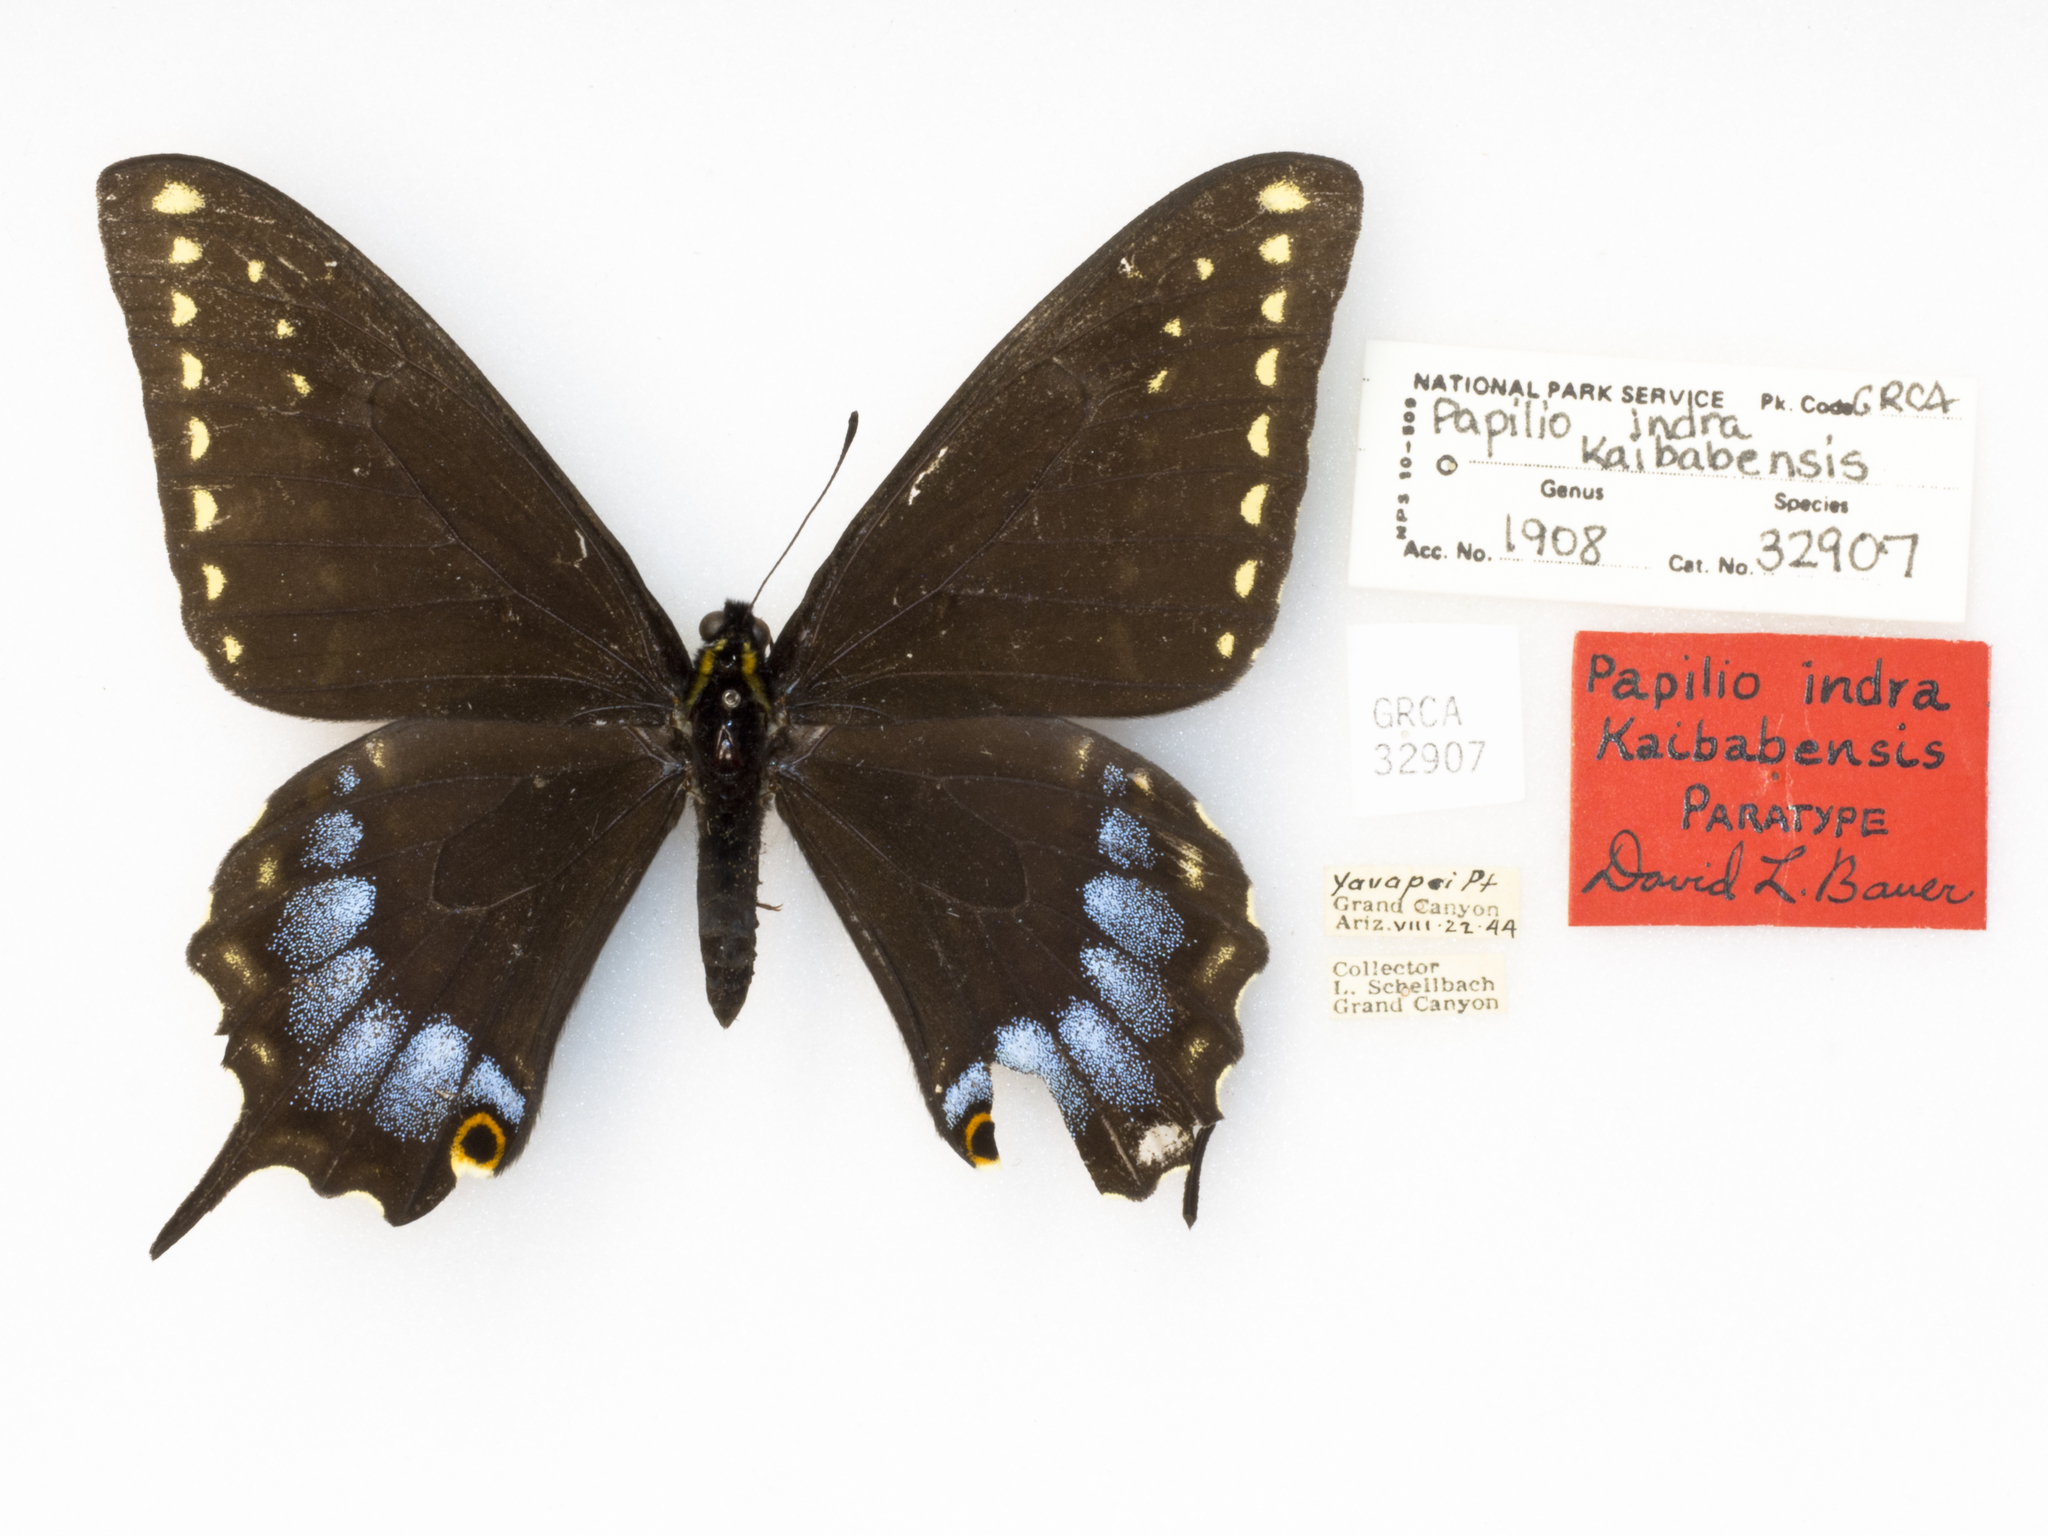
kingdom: Animalia
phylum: Arthropoda
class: Insecta
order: Lepidoptera
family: Papilionidae
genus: Papilio
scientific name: Papilio indra
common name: Cliff swallowtail
